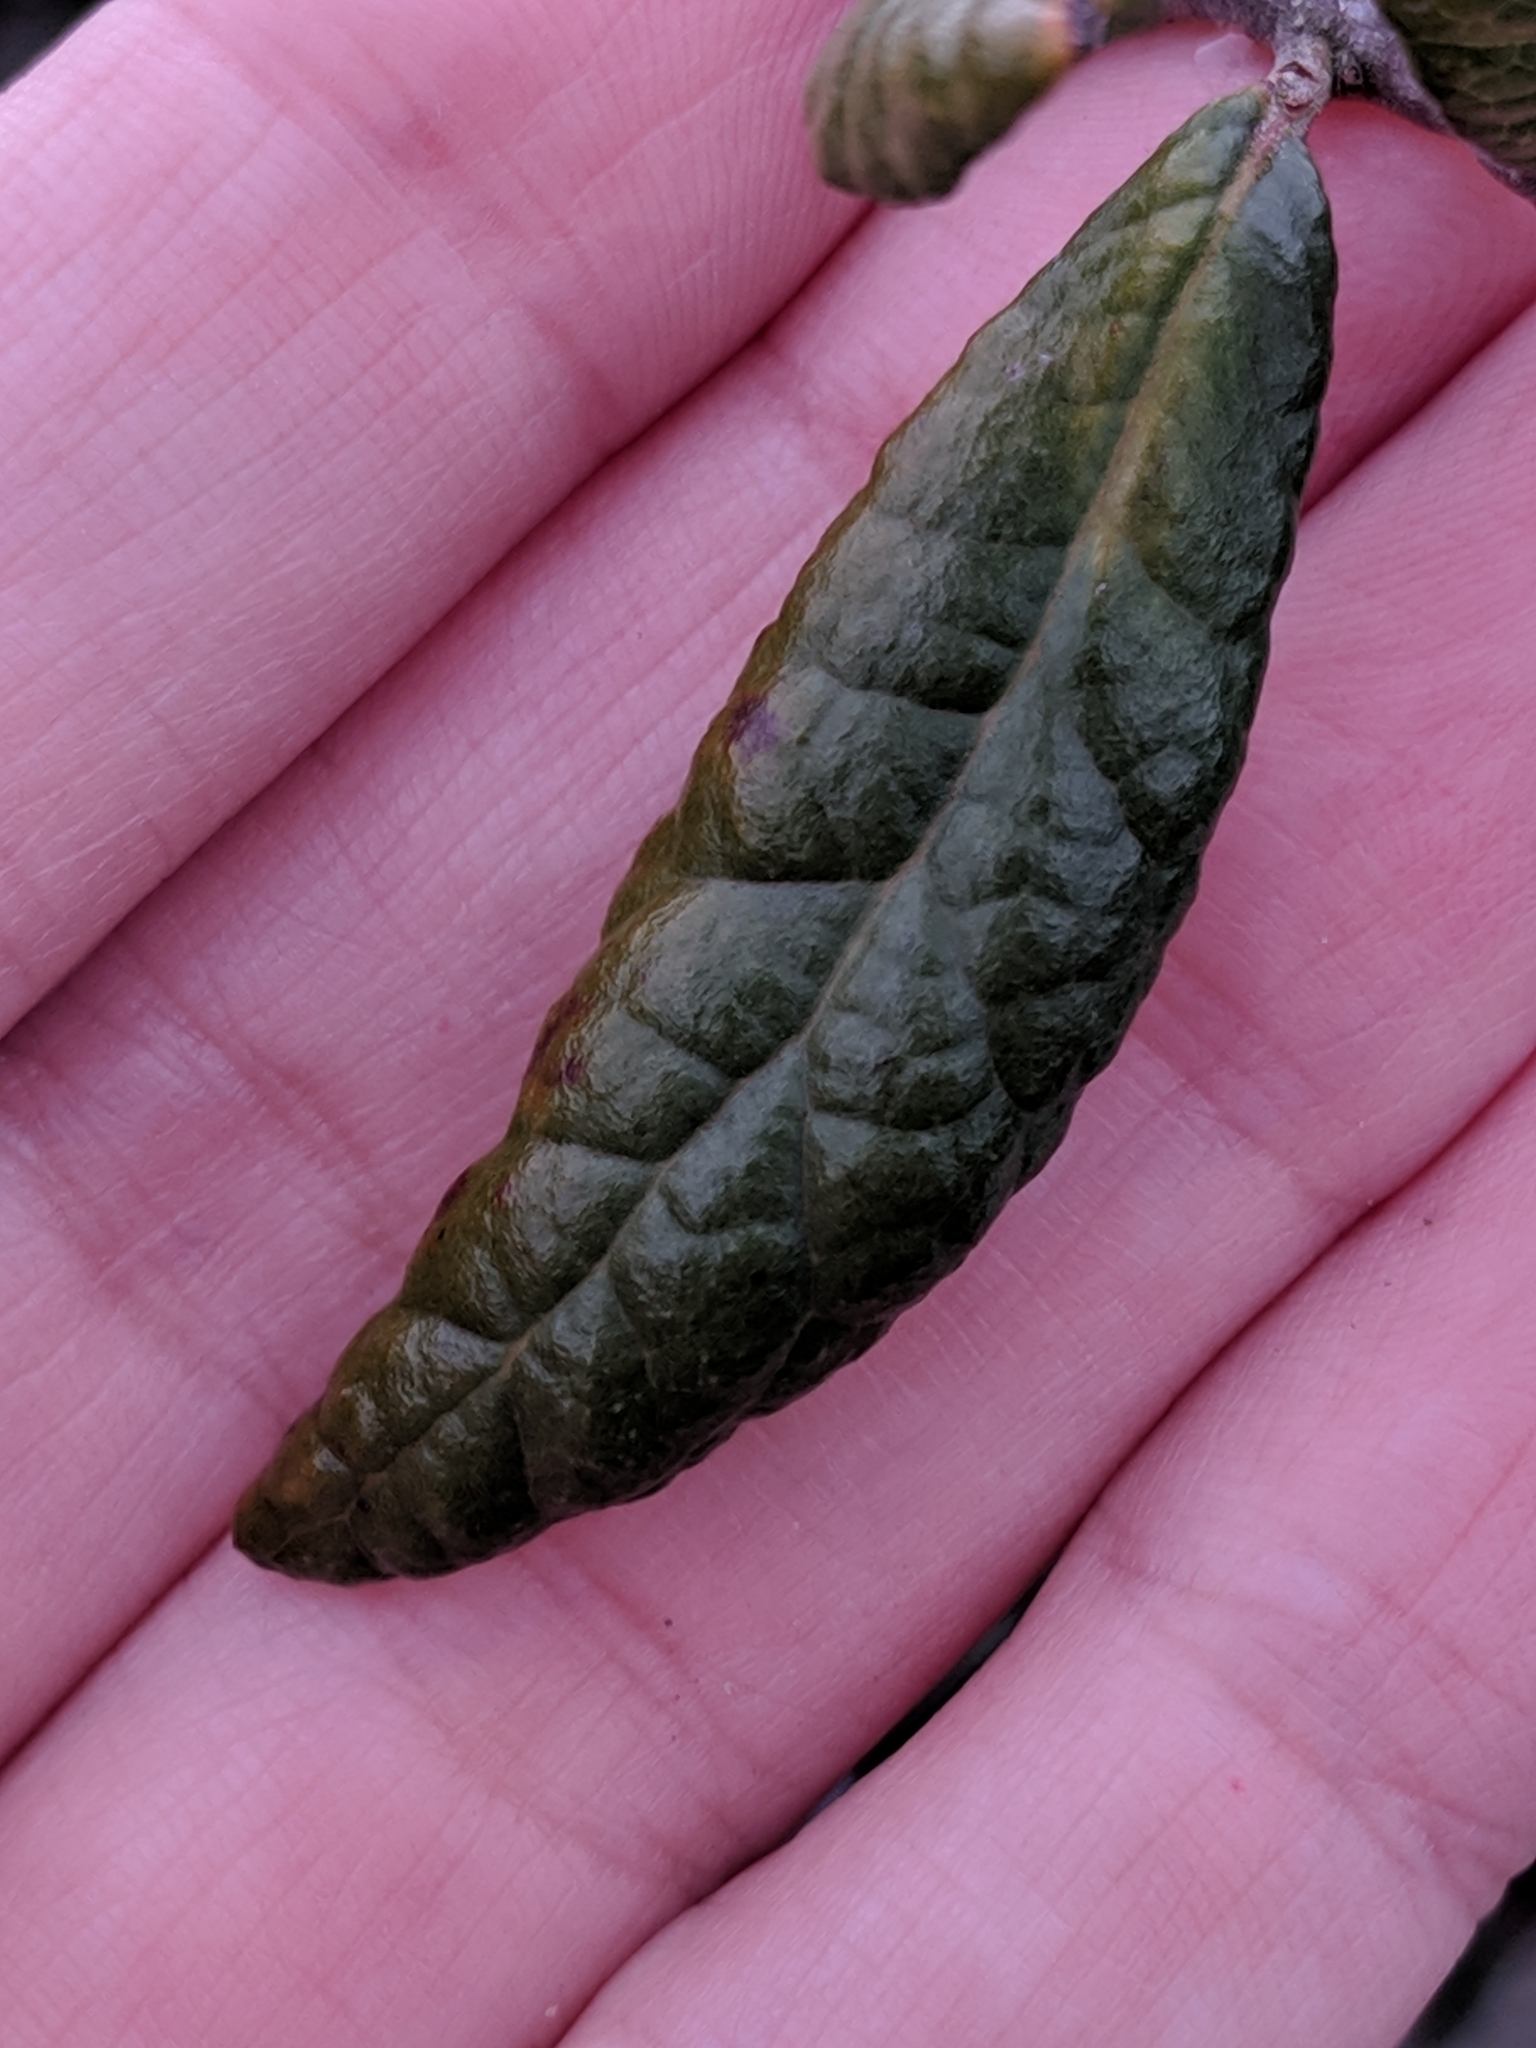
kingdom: Plantae
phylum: Tracheophyta
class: Magnoliopsida
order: Fagales
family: Fagaceae
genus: Quercus
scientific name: Quercus geminata
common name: Sand live oak
